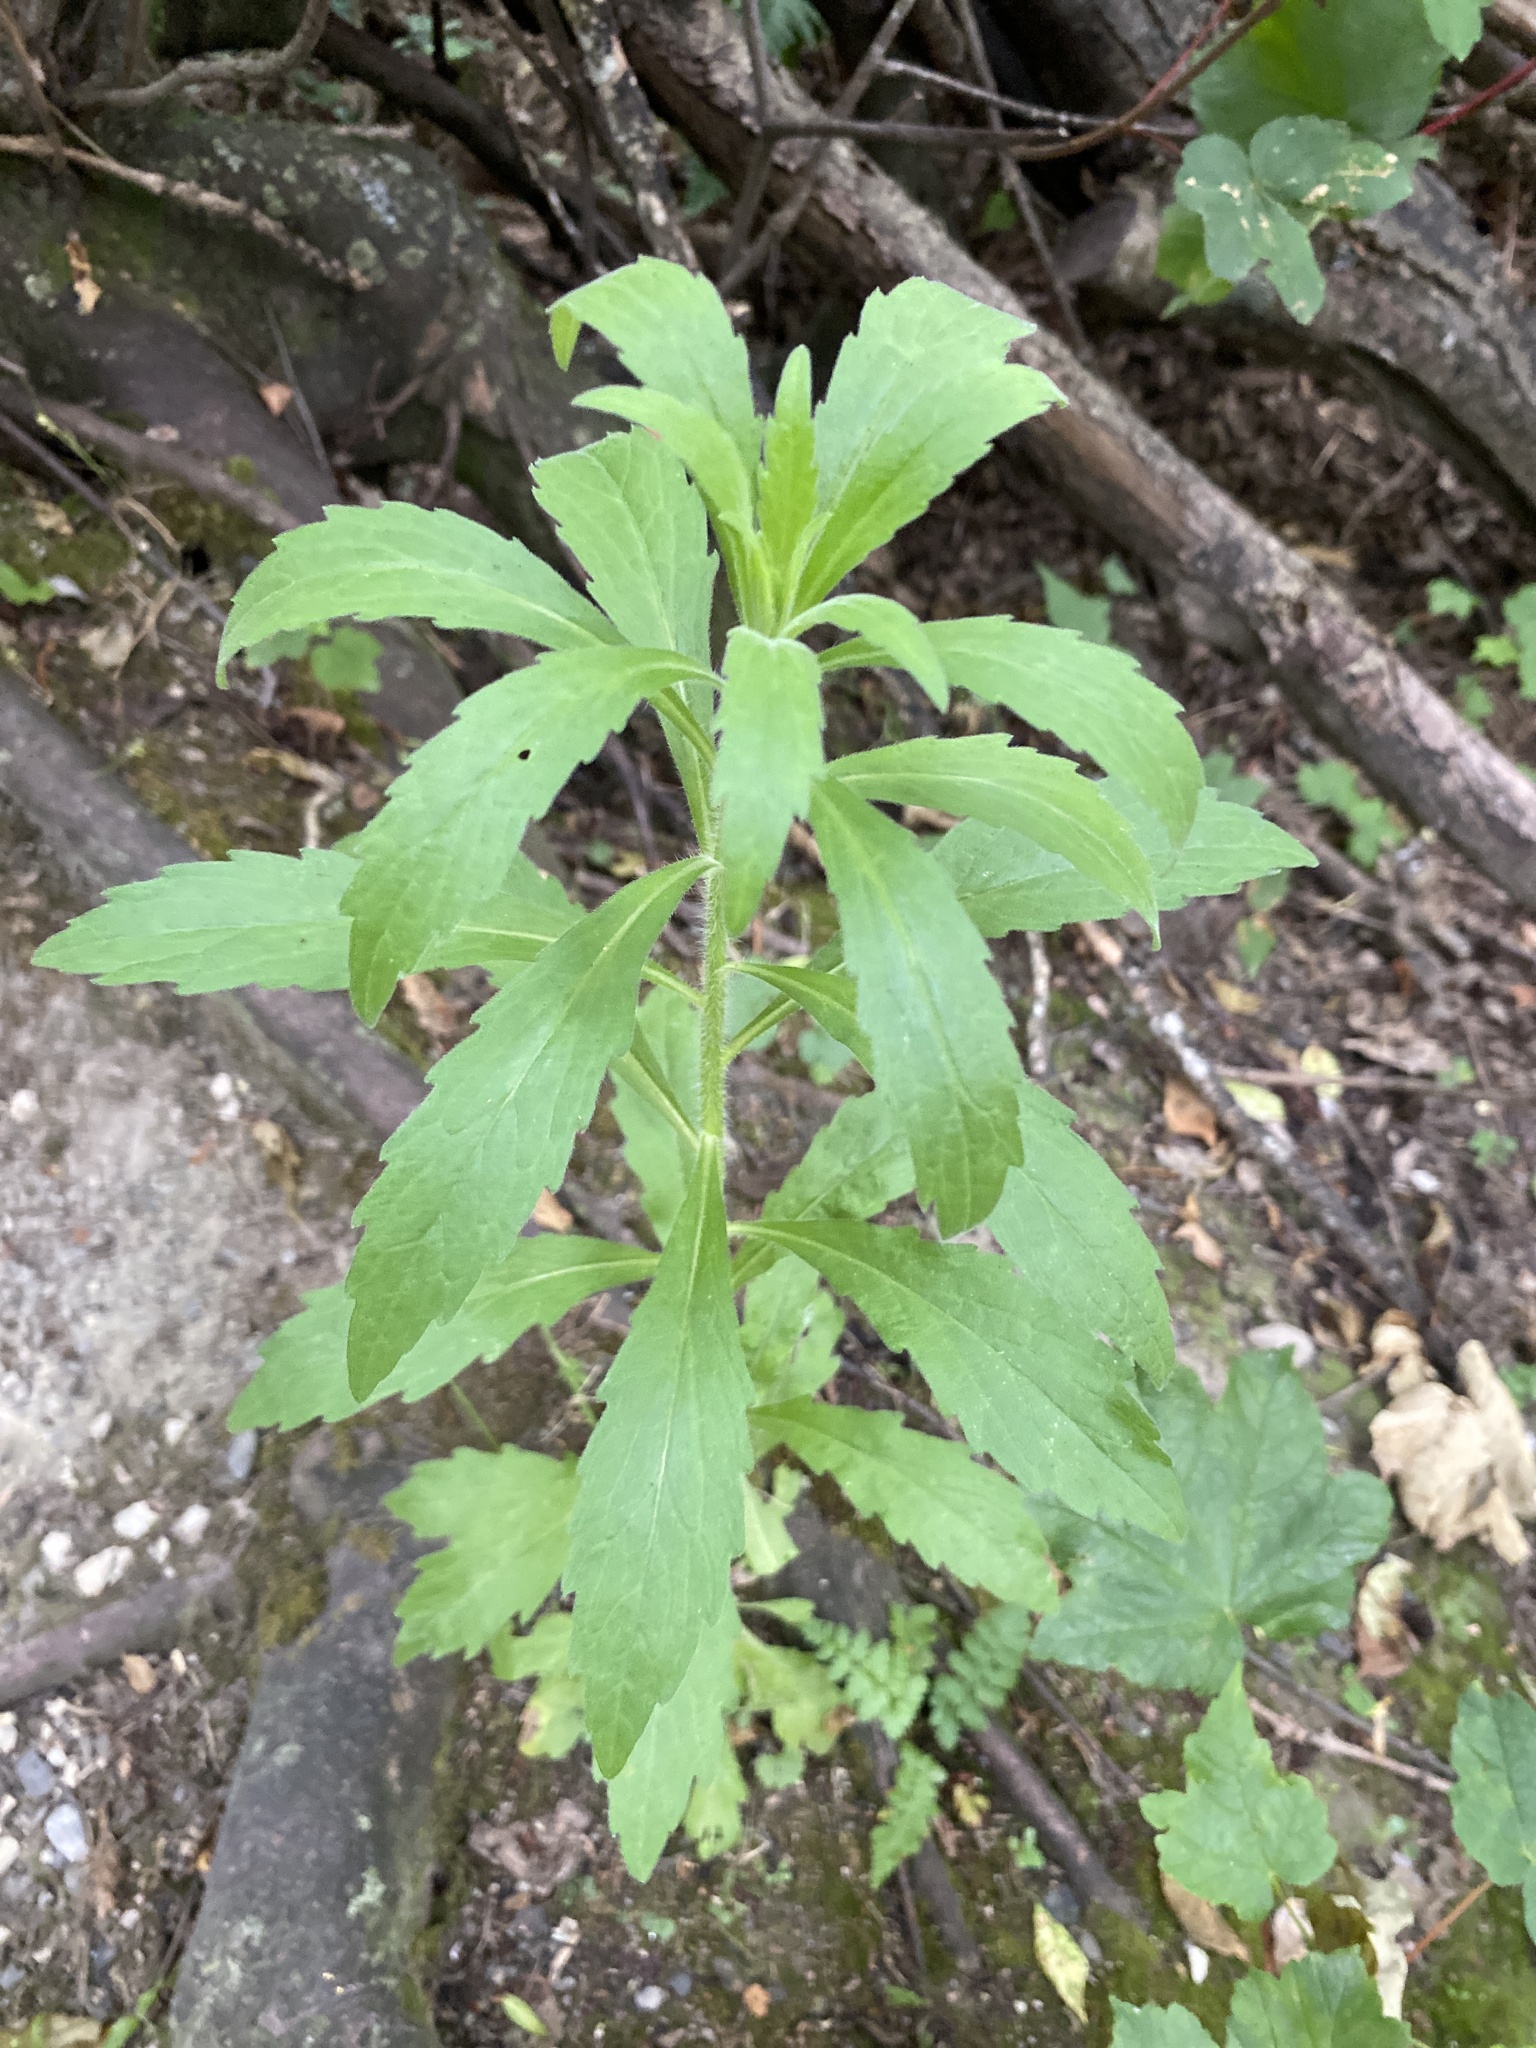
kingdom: Plantae
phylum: Tracheophyta
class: Magnoliopsida
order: Asterales
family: Asteraceae
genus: Erigeron
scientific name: Erigeron sumatrensis
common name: Daisy
